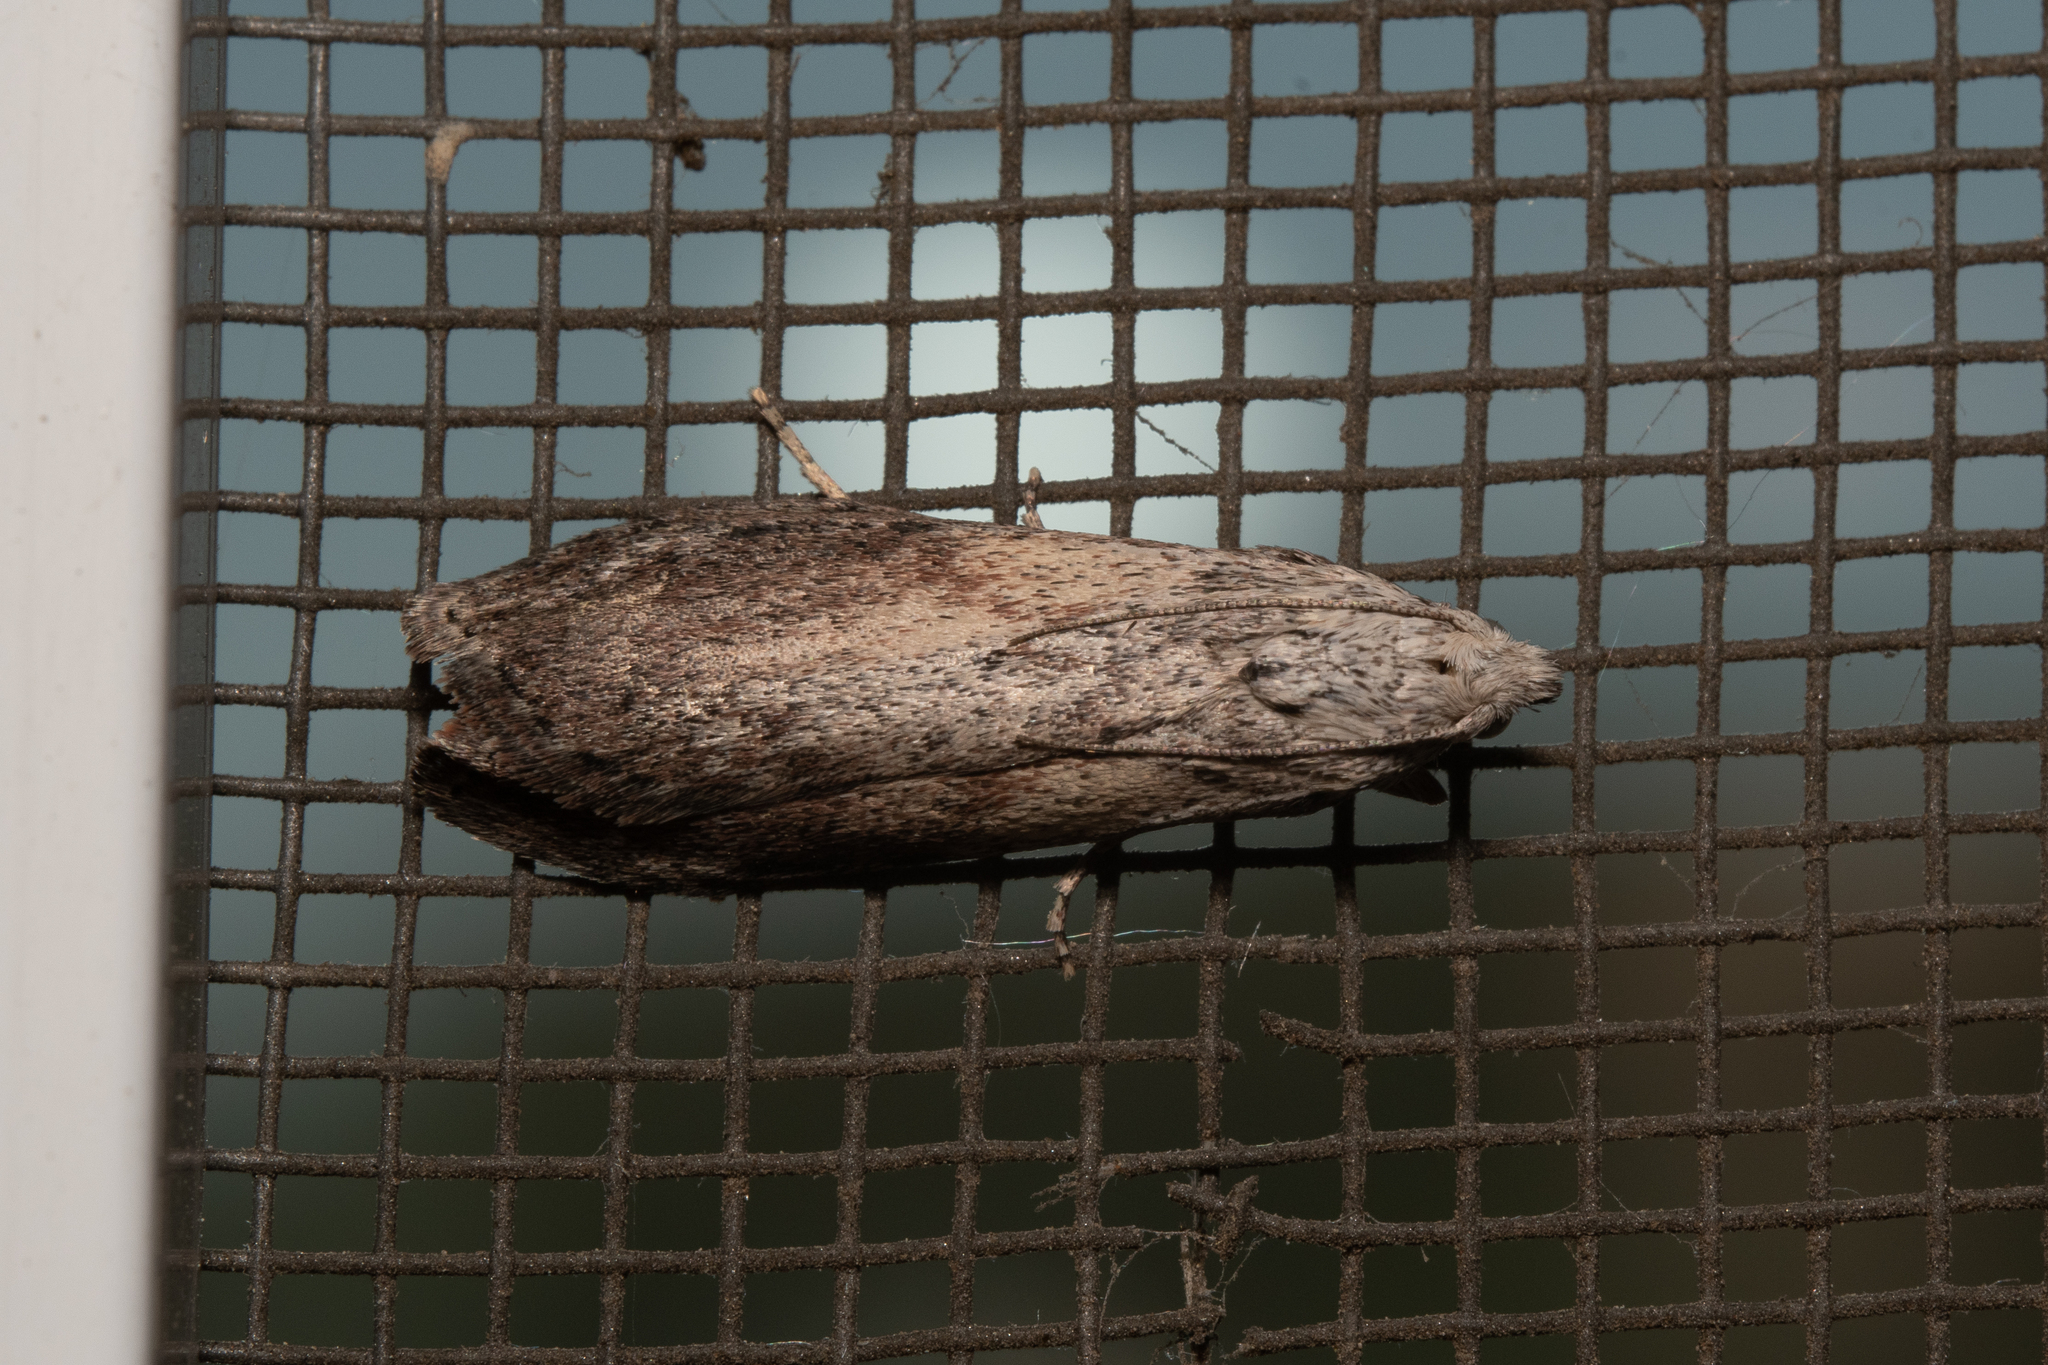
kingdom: Animalia
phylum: Arthropoda
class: Insecta
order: Lepidoptera
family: Pyralidae
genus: Aphomia
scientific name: Aphomia sociella
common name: Bee moth
